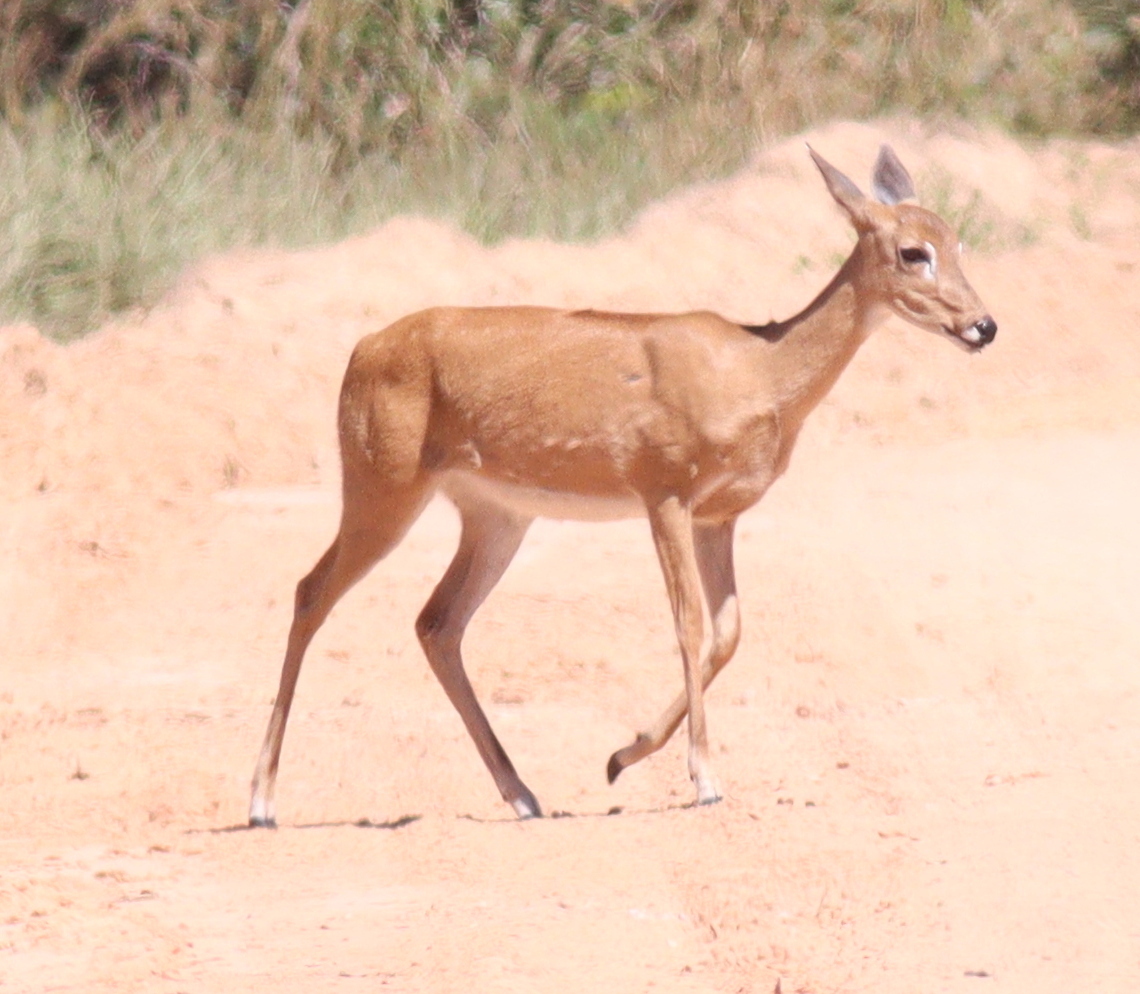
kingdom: Animalia
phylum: Chordata
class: Mammalia
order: Artiodactyla
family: Cervidae
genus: Ozotoceros
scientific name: Ozotoceros bezoarticus
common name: Pampas deer
